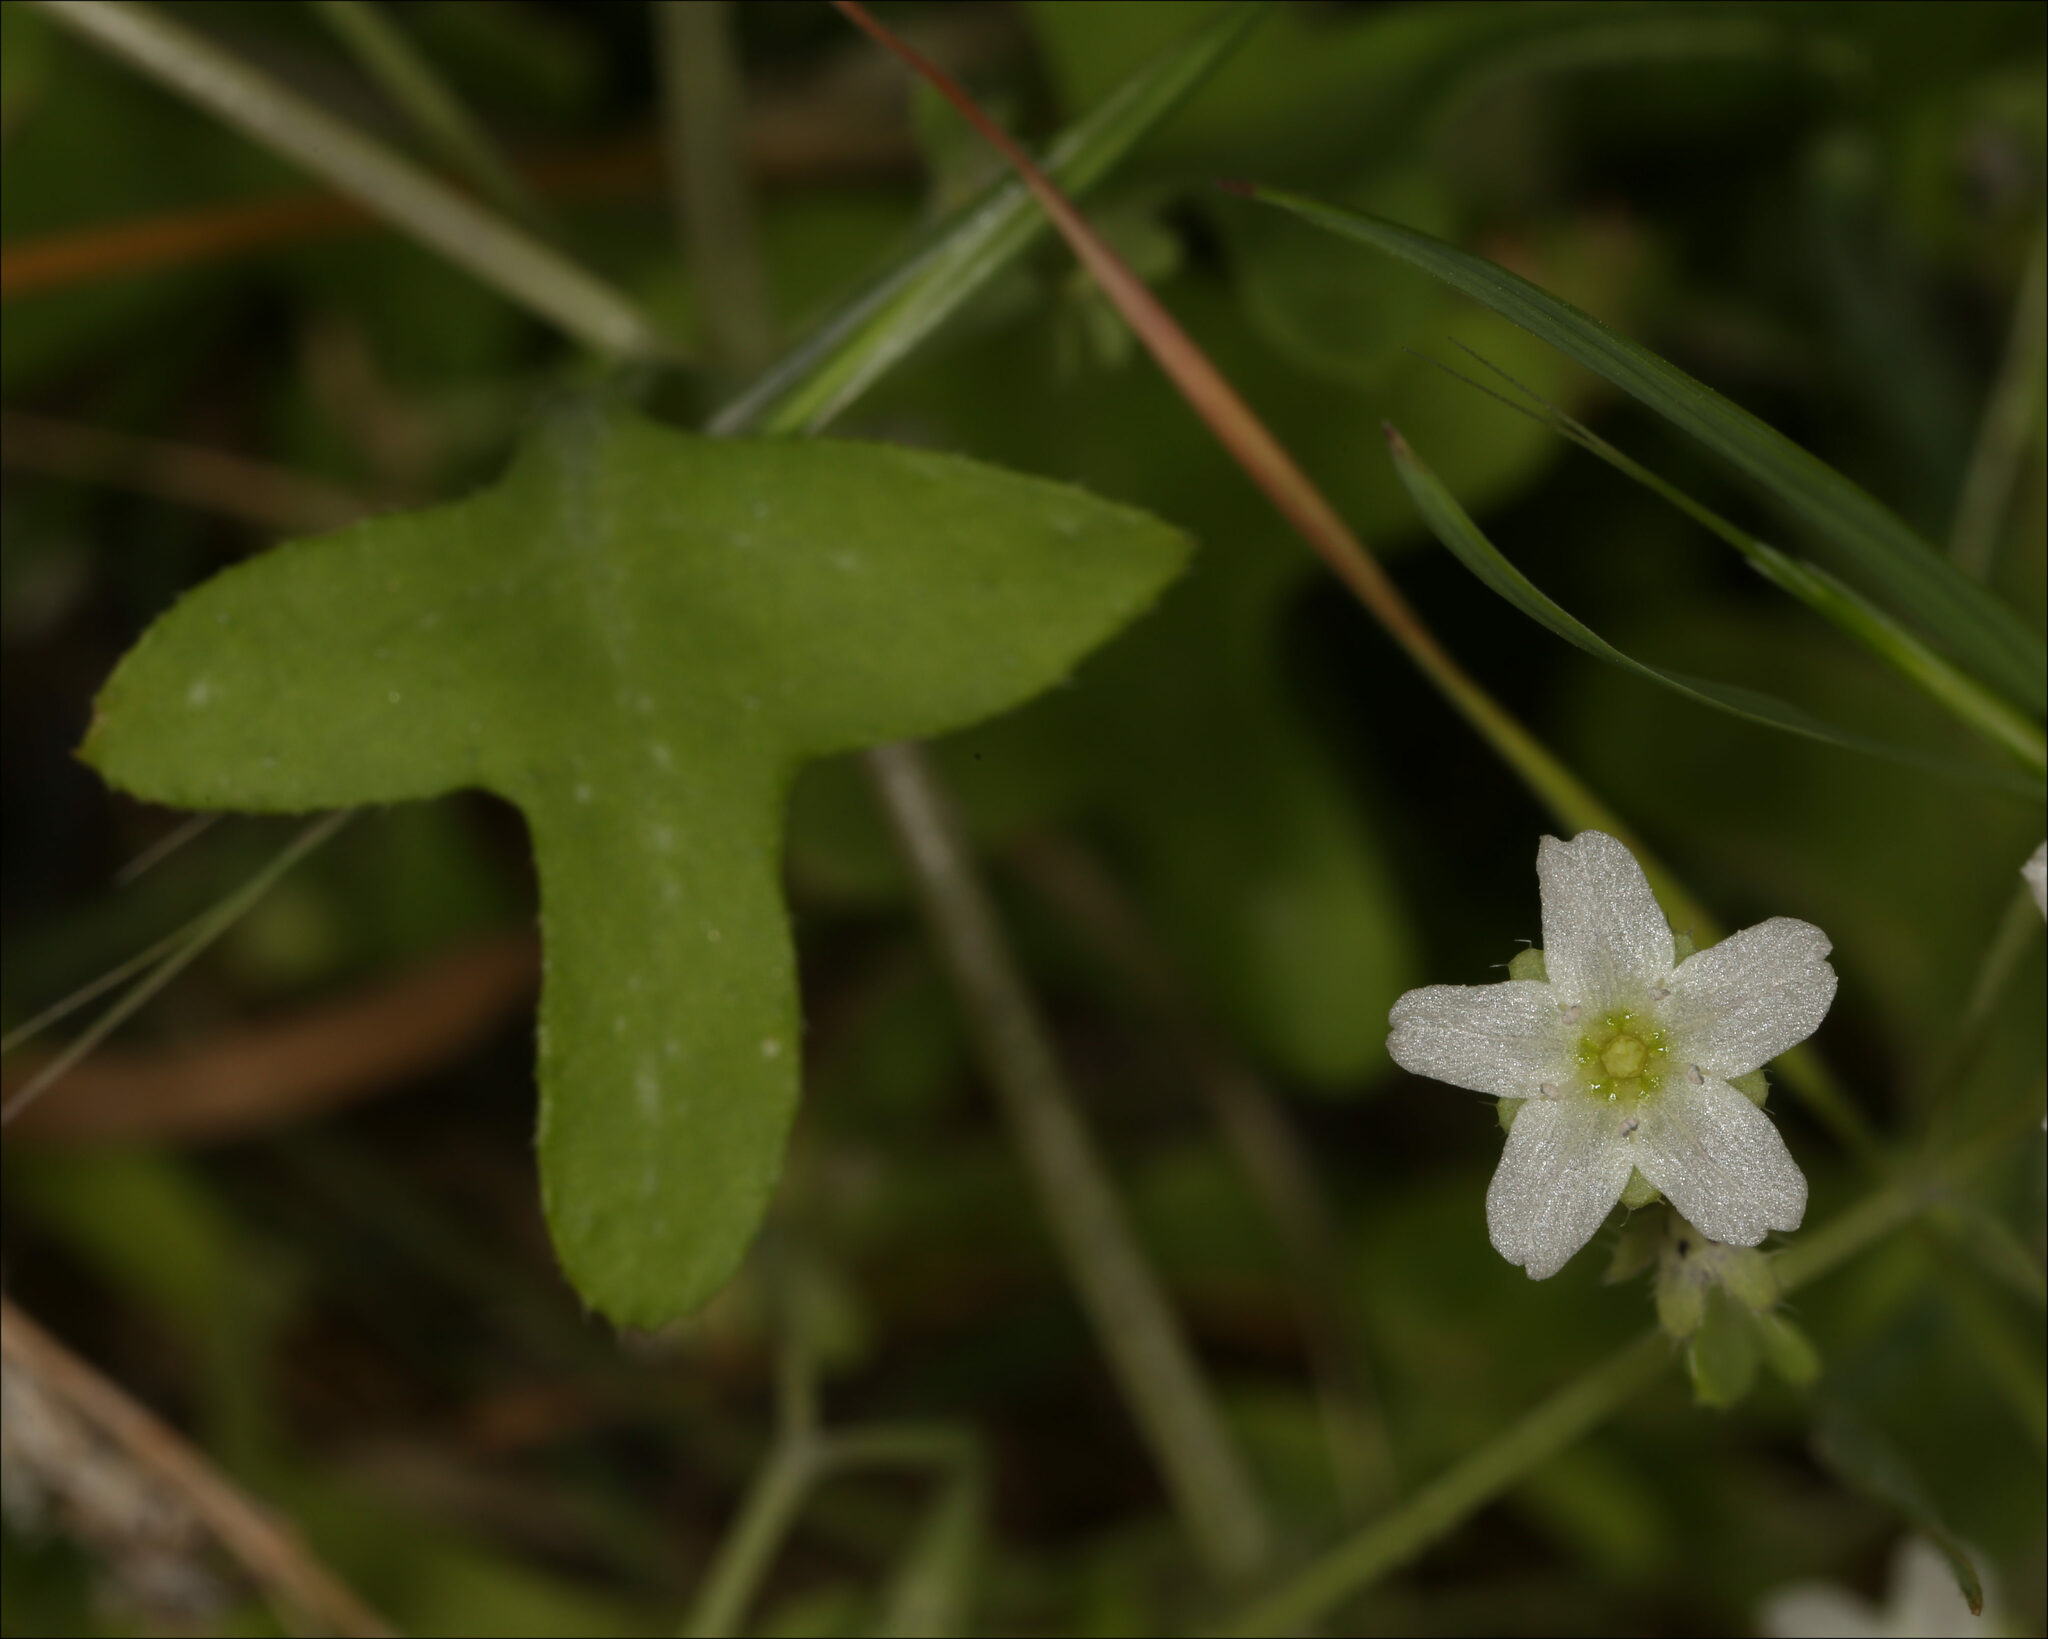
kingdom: Plantae
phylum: Tracheophyta
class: Magnoliopsida
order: Boraginales
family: Hydrophyllaceae
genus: Pholistoma
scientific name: Pholistoma membranaceum
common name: White fiesta-flower
